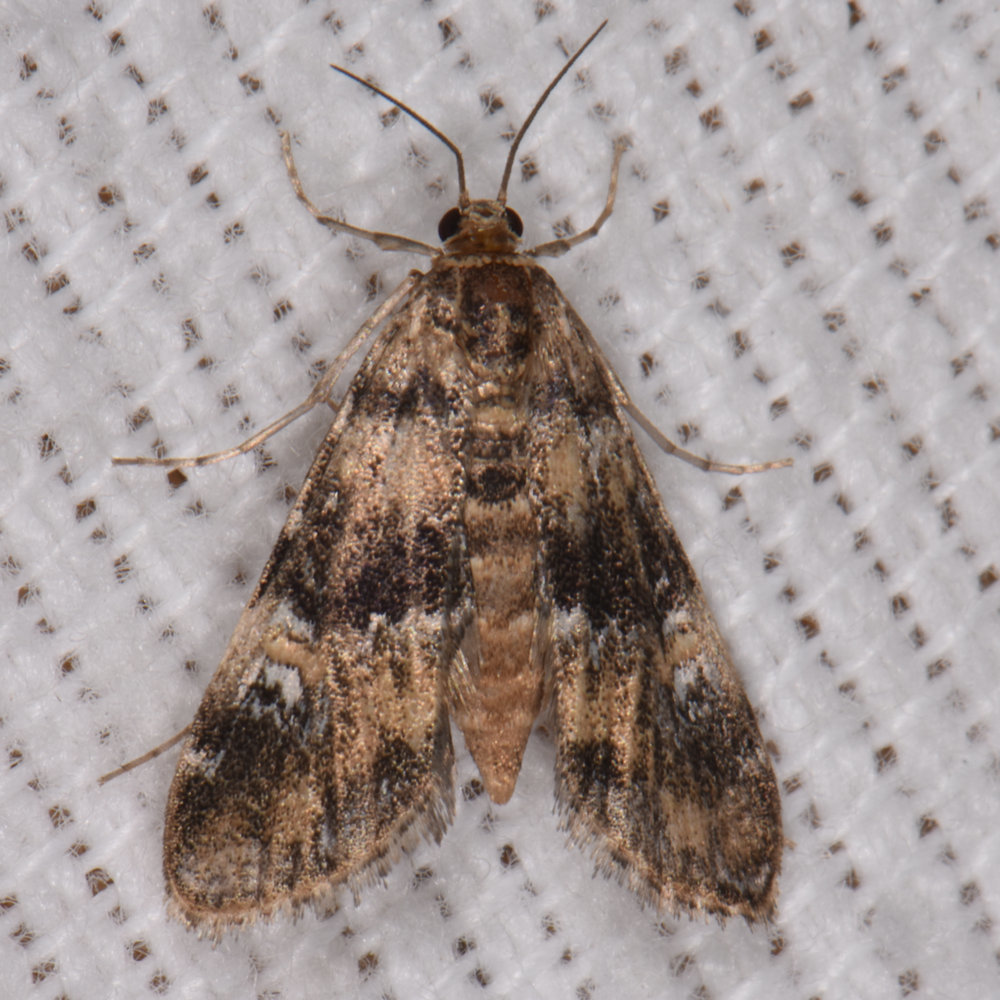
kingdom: Animalia
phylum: Arthropoda
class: Insecta
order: Lepidoptera
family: Crambidae
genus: Elophila
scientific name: Elophila obliteralis
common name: Waterlily leafcutter moth
